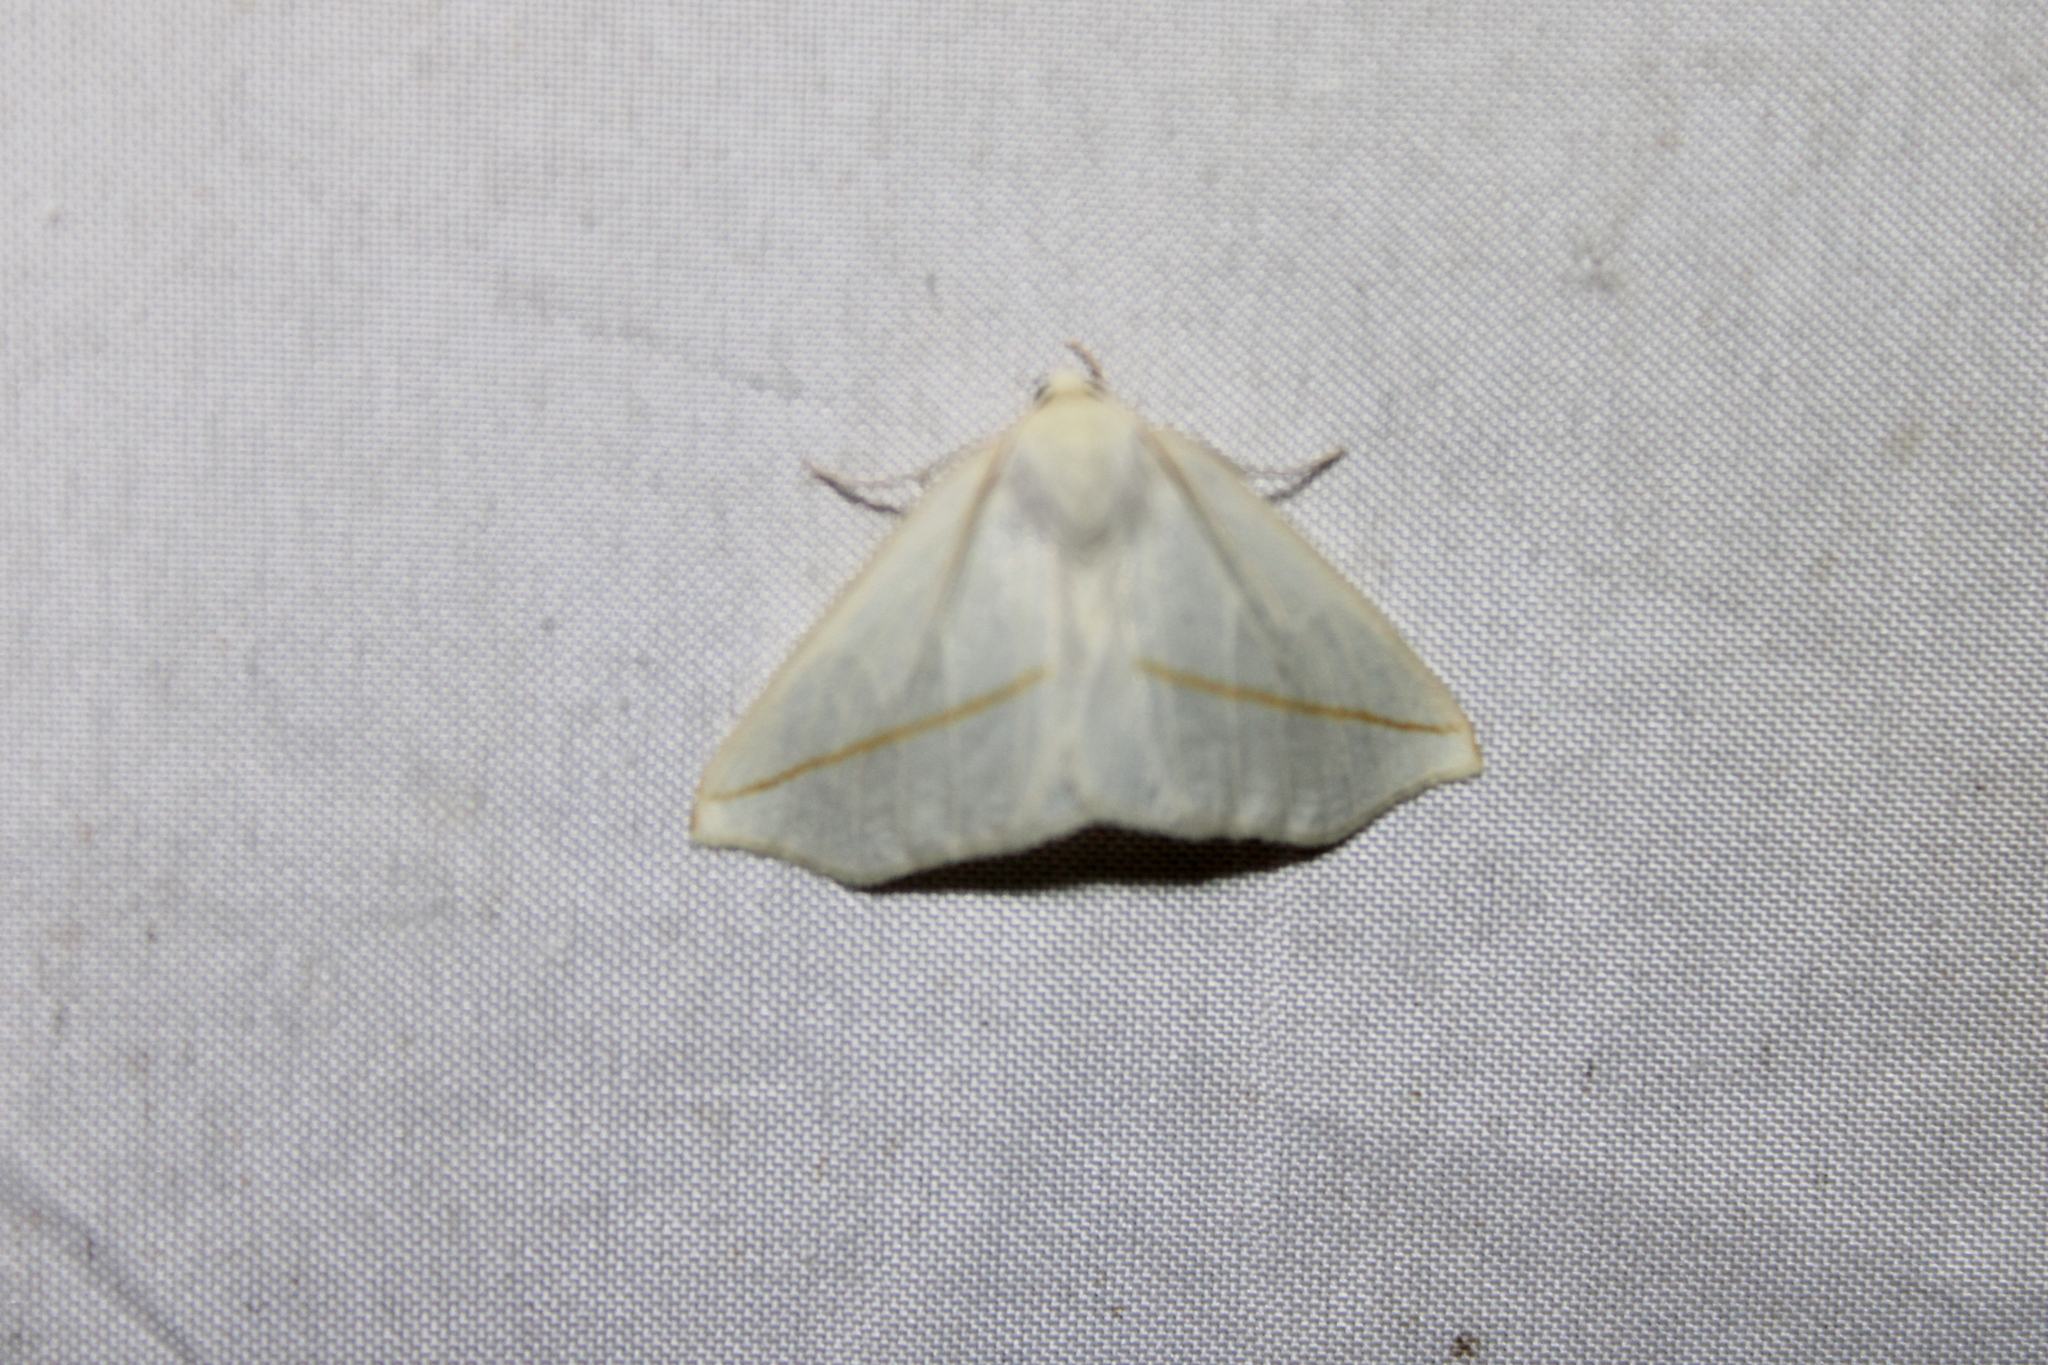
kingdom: Animalia
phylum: Arthropoda
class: Insecta
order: Lepidoptera
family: Geometridae
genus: Tetracis
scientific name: Tetracis cachexiata
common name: White slant-line
